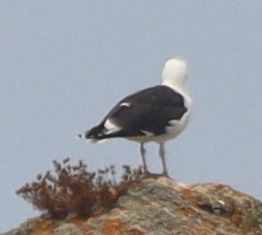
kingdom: Animalia
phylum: Chordata
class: Aves
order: Charadriiformes
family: Laridae
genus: Larus
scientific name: Larus marinus
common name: Great black-backed gull
